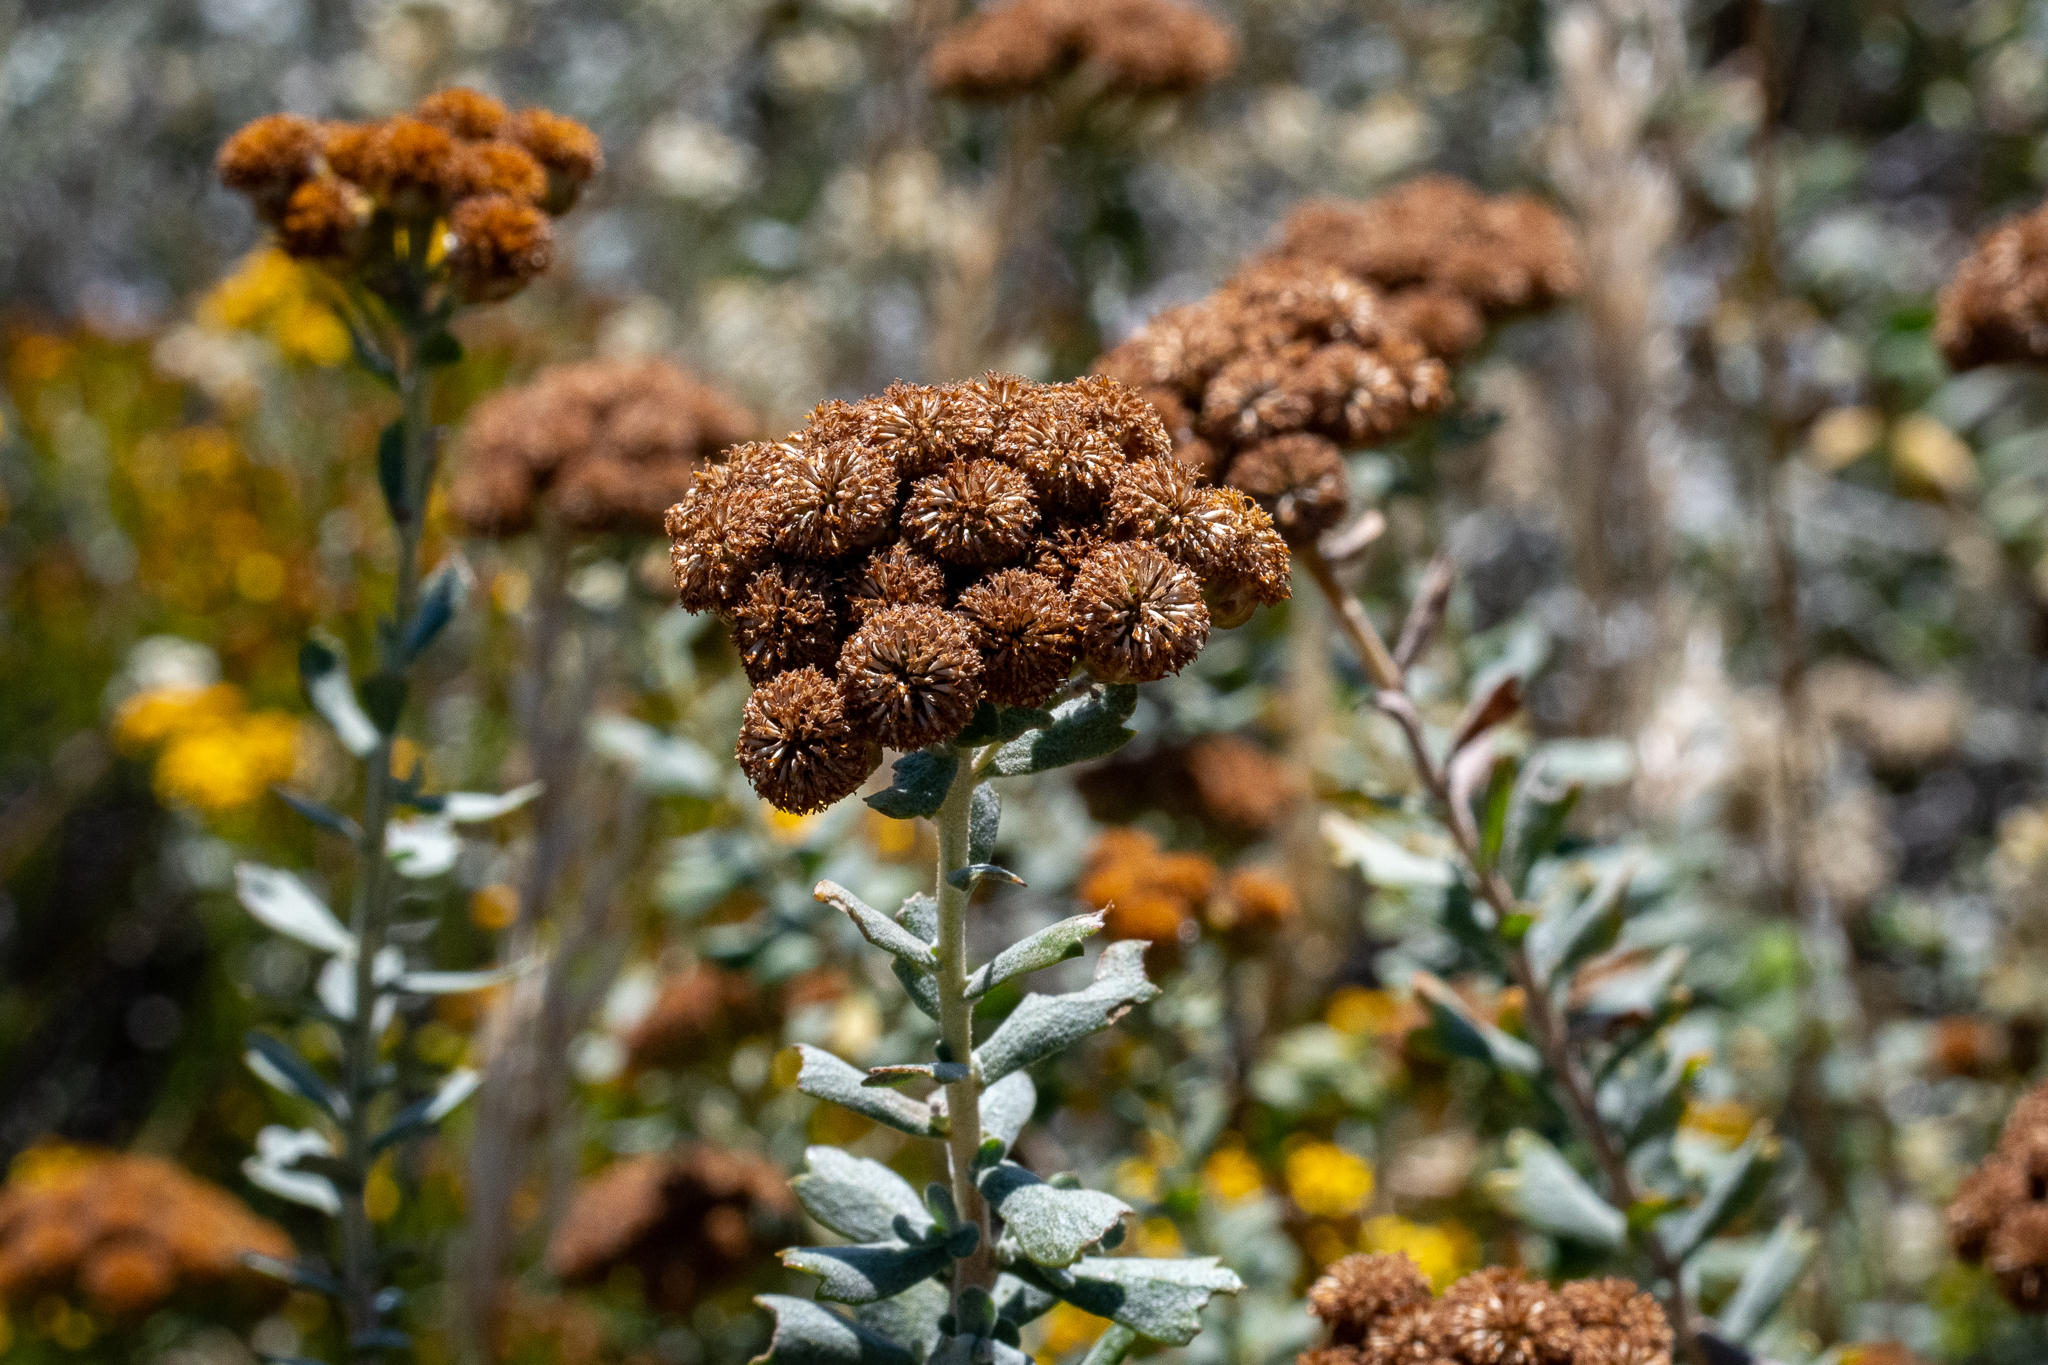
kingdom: Plantae
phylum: Tracheophyta
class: Magnoliopsida
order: Asterales
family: Asteraceae
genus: Athanasia
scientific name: Athanasia trifurcata
